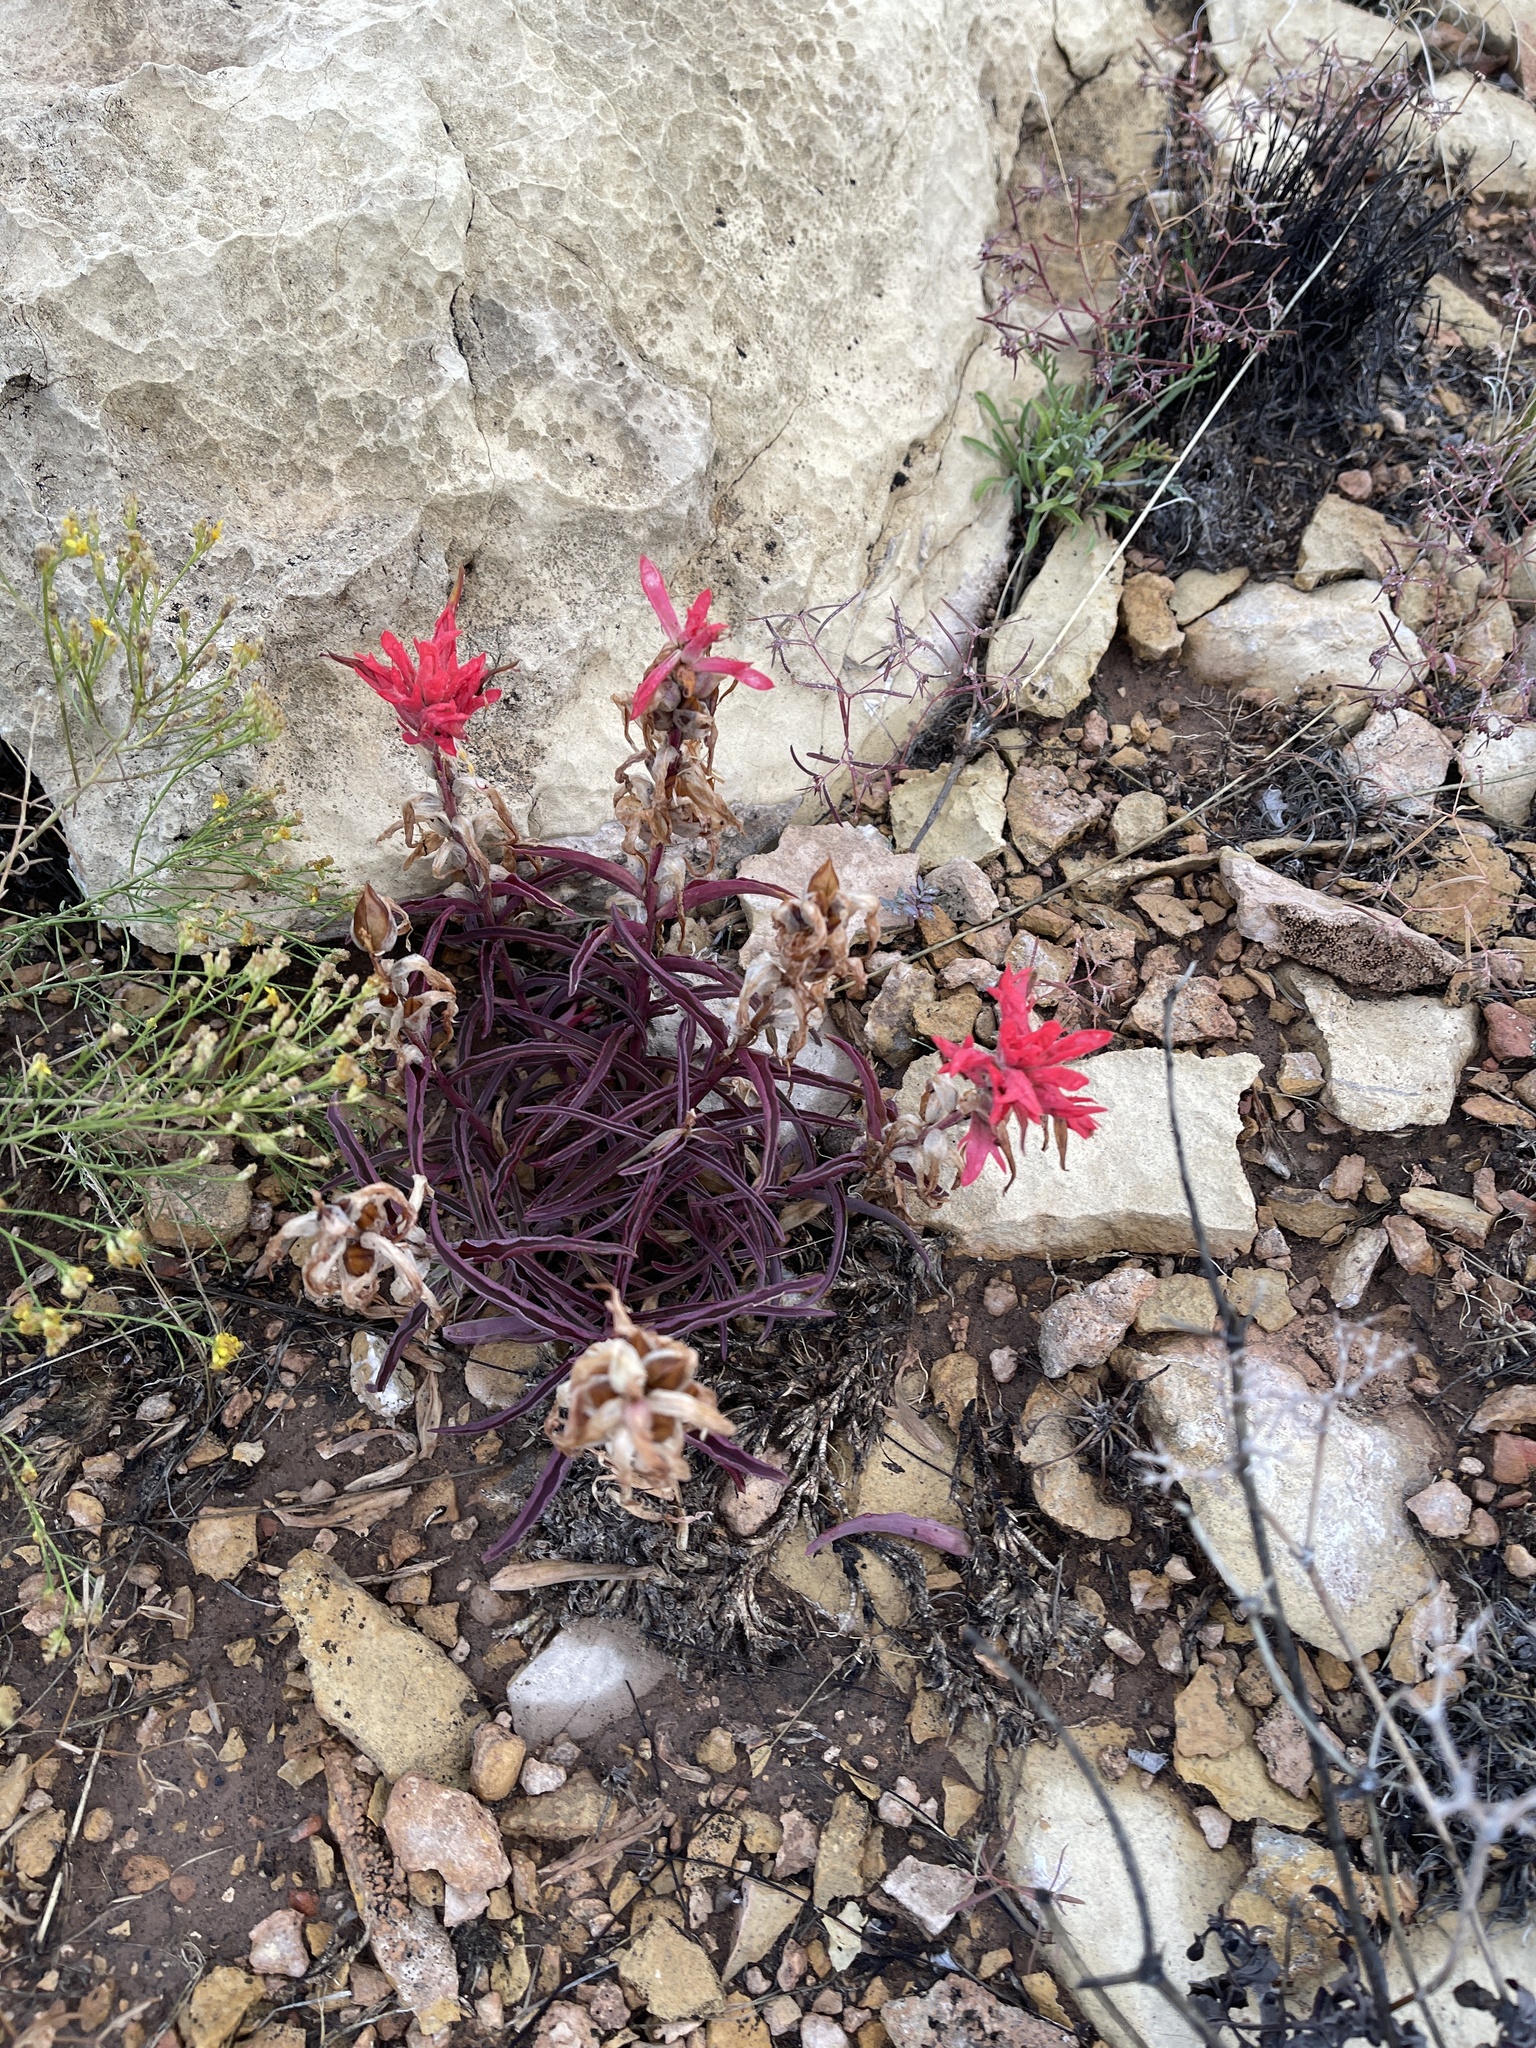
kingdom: Plantae
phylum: Tracheophyta
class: Magnoliopsida
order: Lamiales
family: Orobanchaceae
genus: Castilleja
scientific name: Castilleja integra
